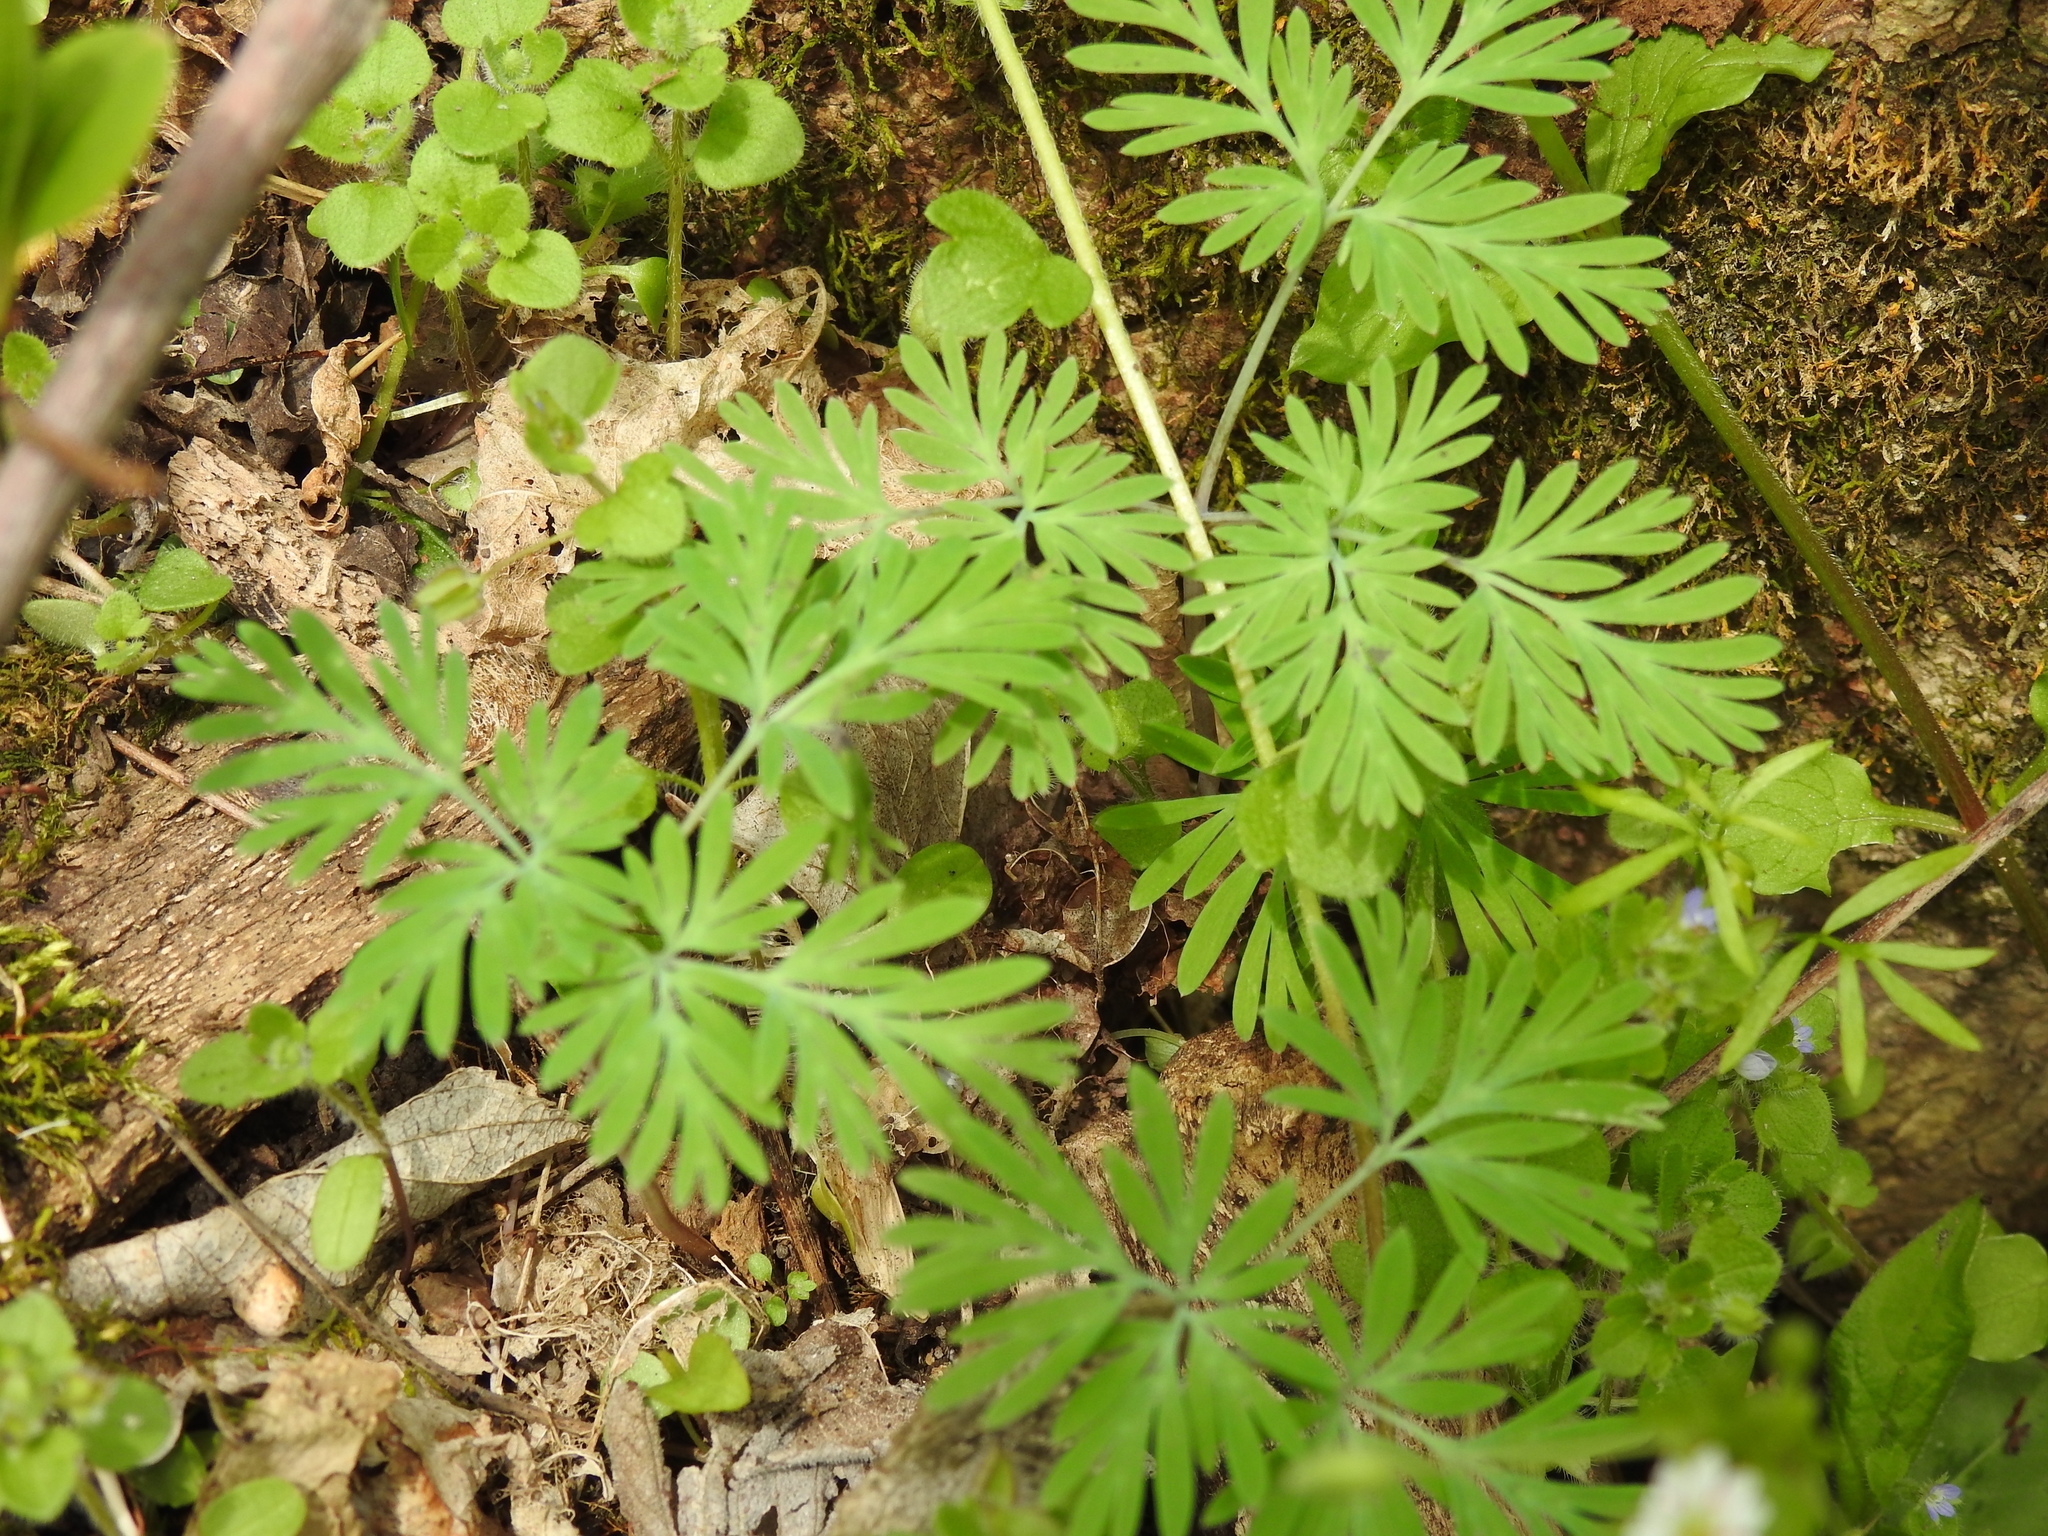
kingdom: Plantae
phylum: Tracheophyta
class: Magnoliopsida
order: Ranunculales
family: Papaveraceae
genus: Dicentra
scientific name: Dicentra
